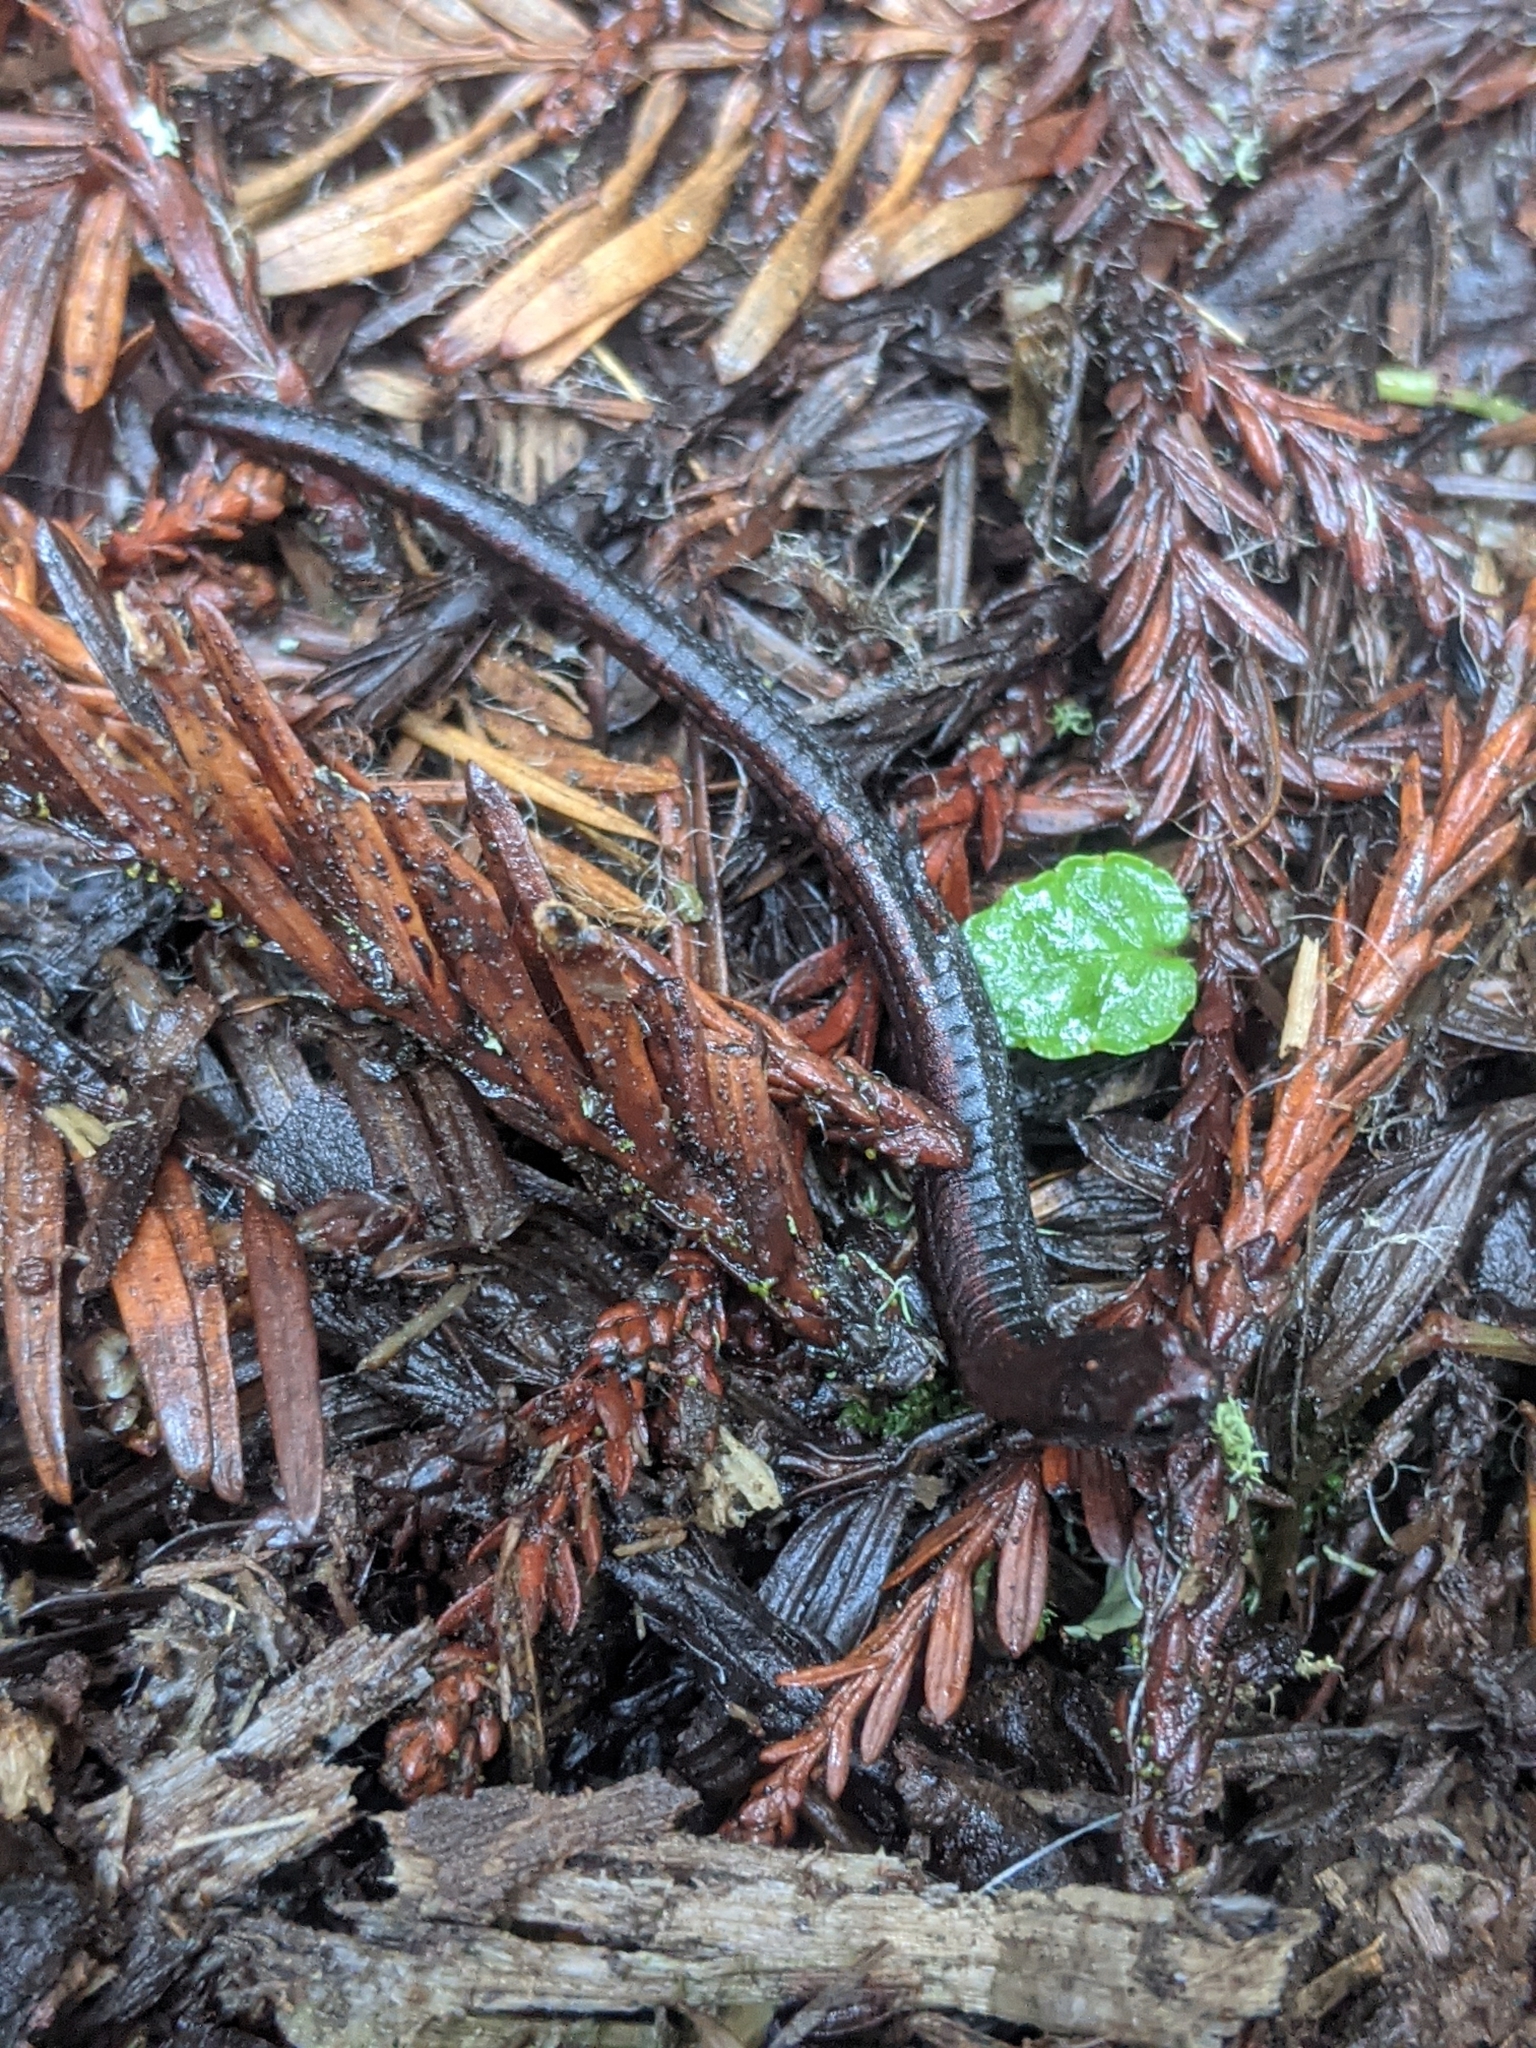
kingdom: Animalia
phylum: Chordata
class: Amphibia
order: Caudata
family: Plethodontidae
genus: Batrachoseps
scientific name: Batrachoseps attenuatus
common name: California slender salamander
